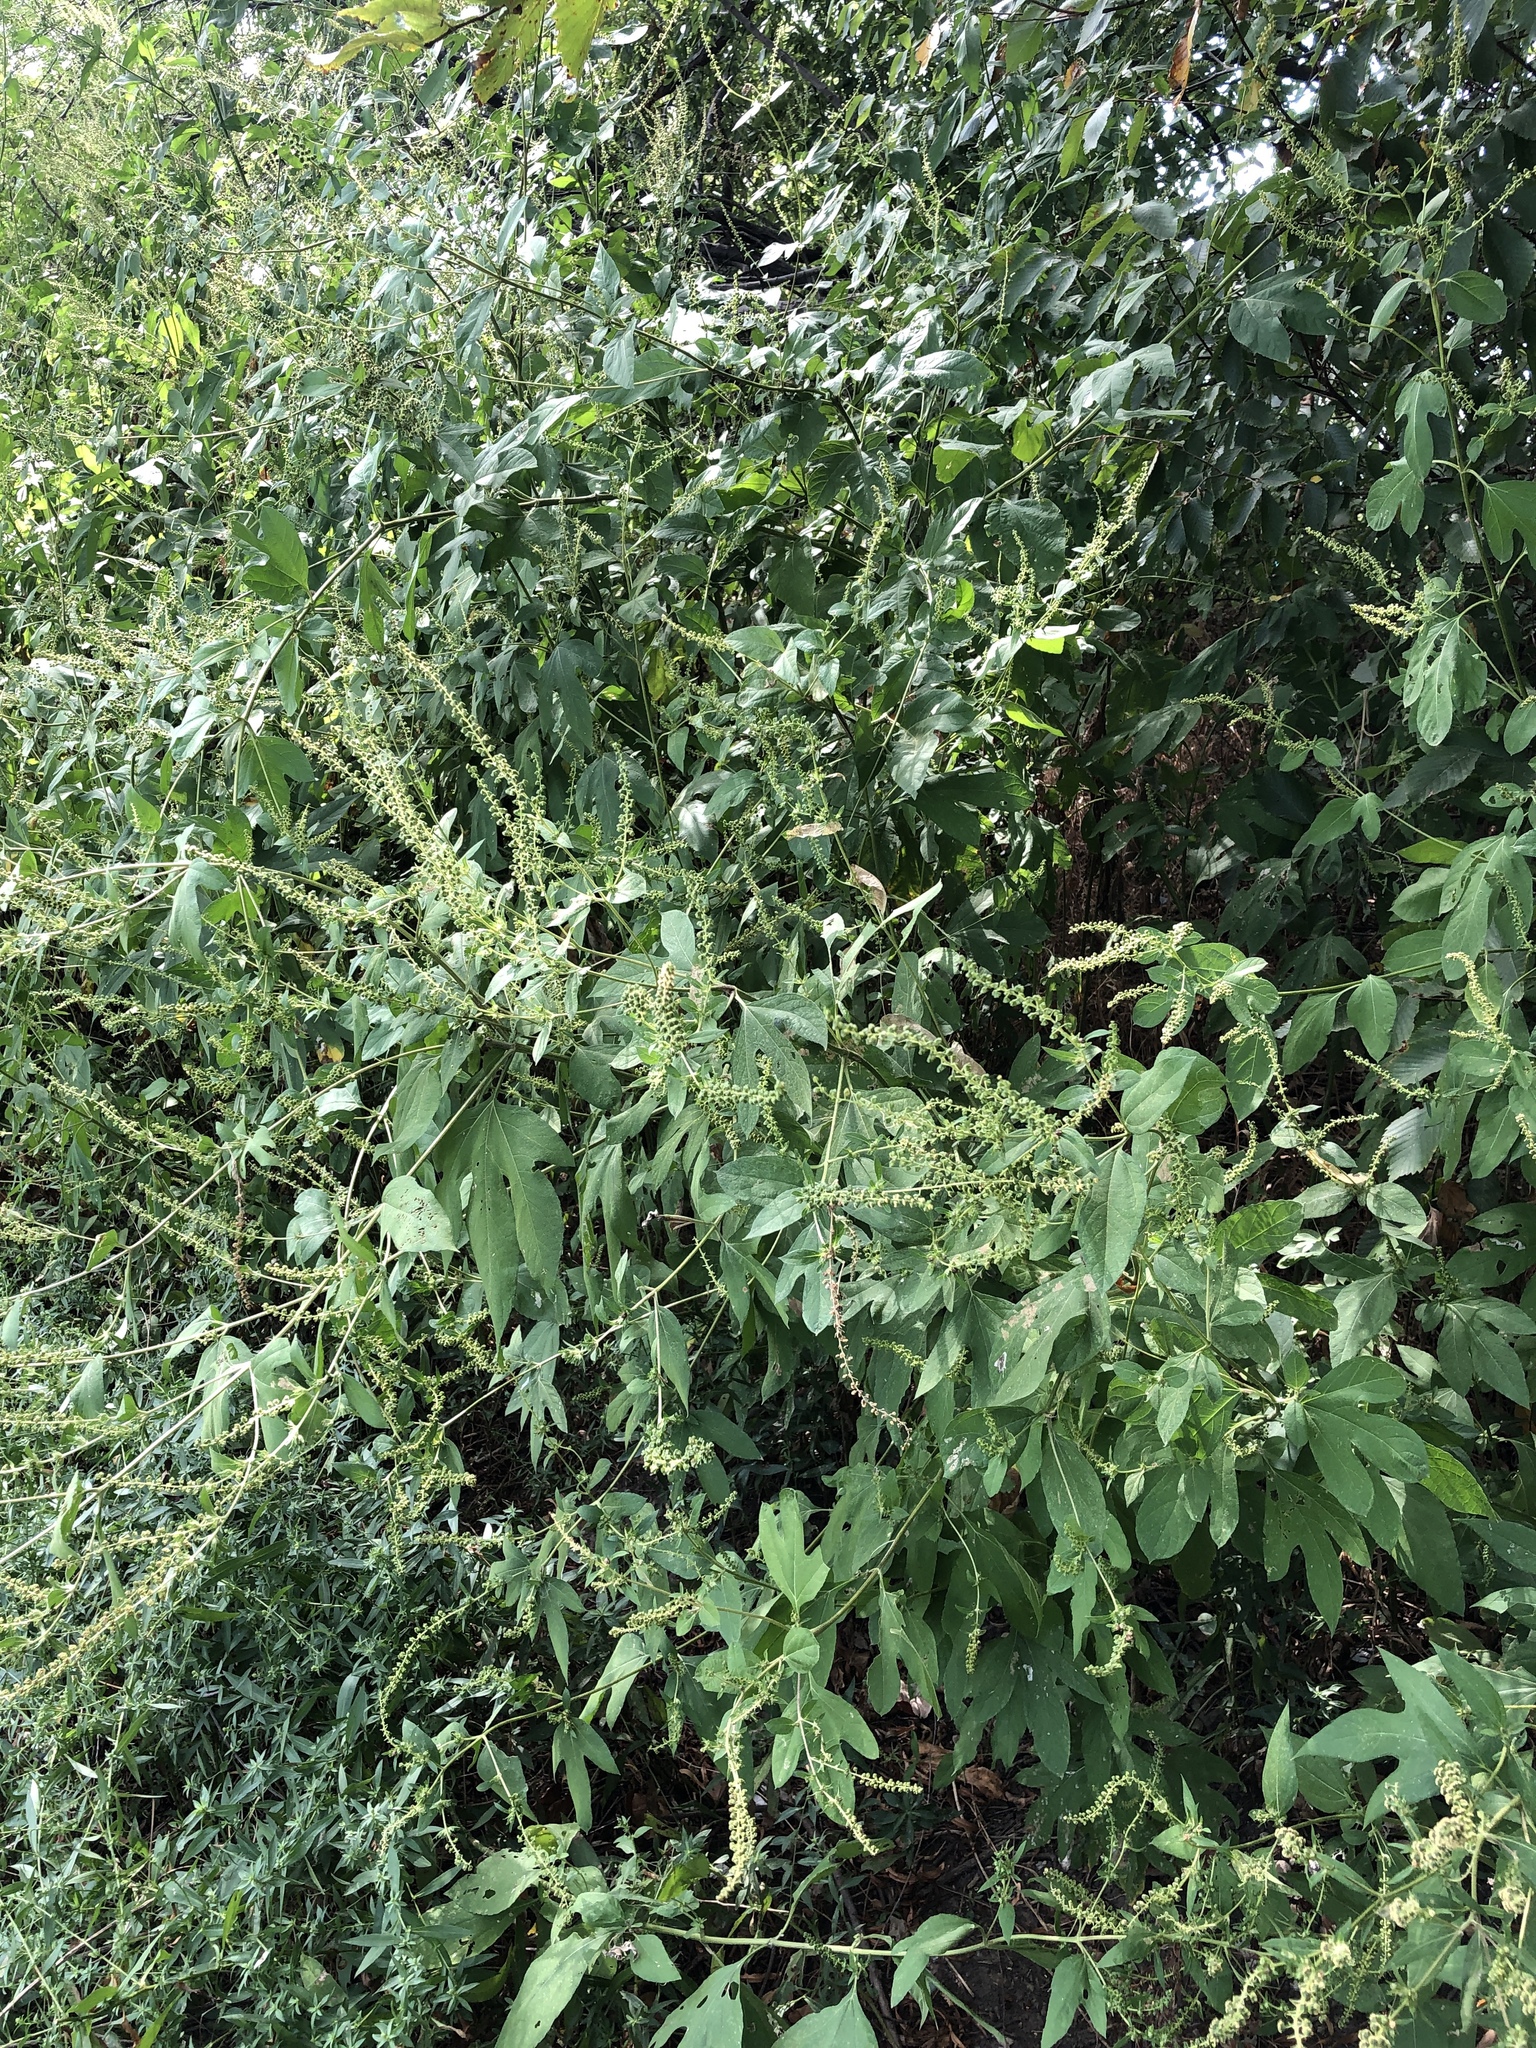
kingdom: Plantae
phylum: Tracheophyta
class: Magnoliopsida
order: Asterales
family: Asteraceae
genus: Ambrosia
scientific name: Ambrosia trifida
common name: Giant ragweed
